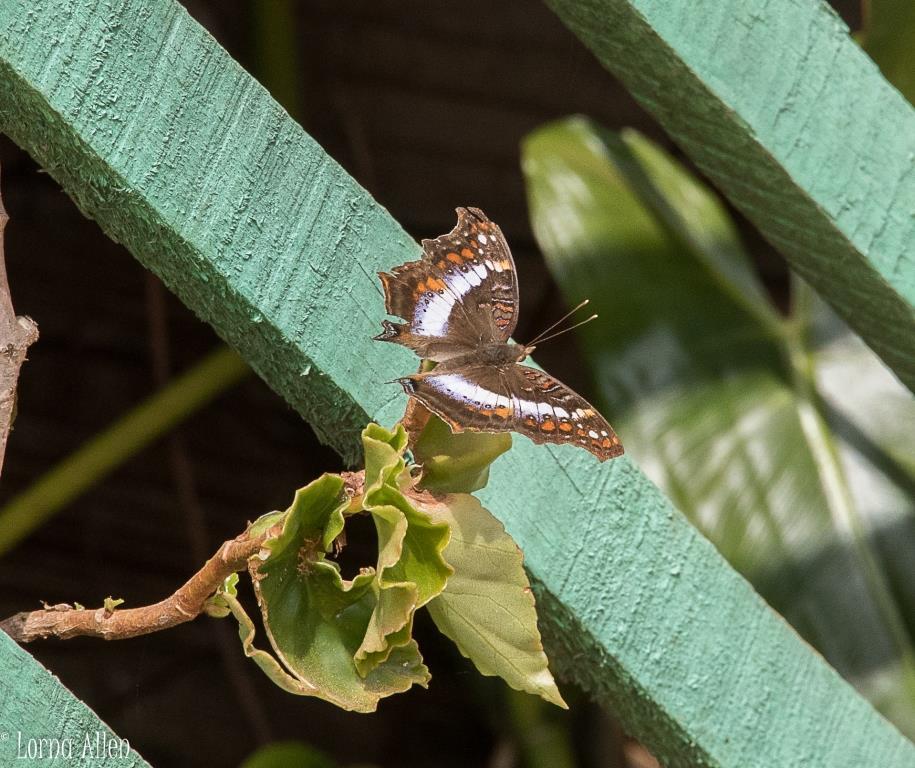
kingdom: Animalia
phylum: Arthropoda
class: Insecta
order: Lepidoptera
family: Nymphalidae
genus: Precis
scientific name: Precis andremiaja
